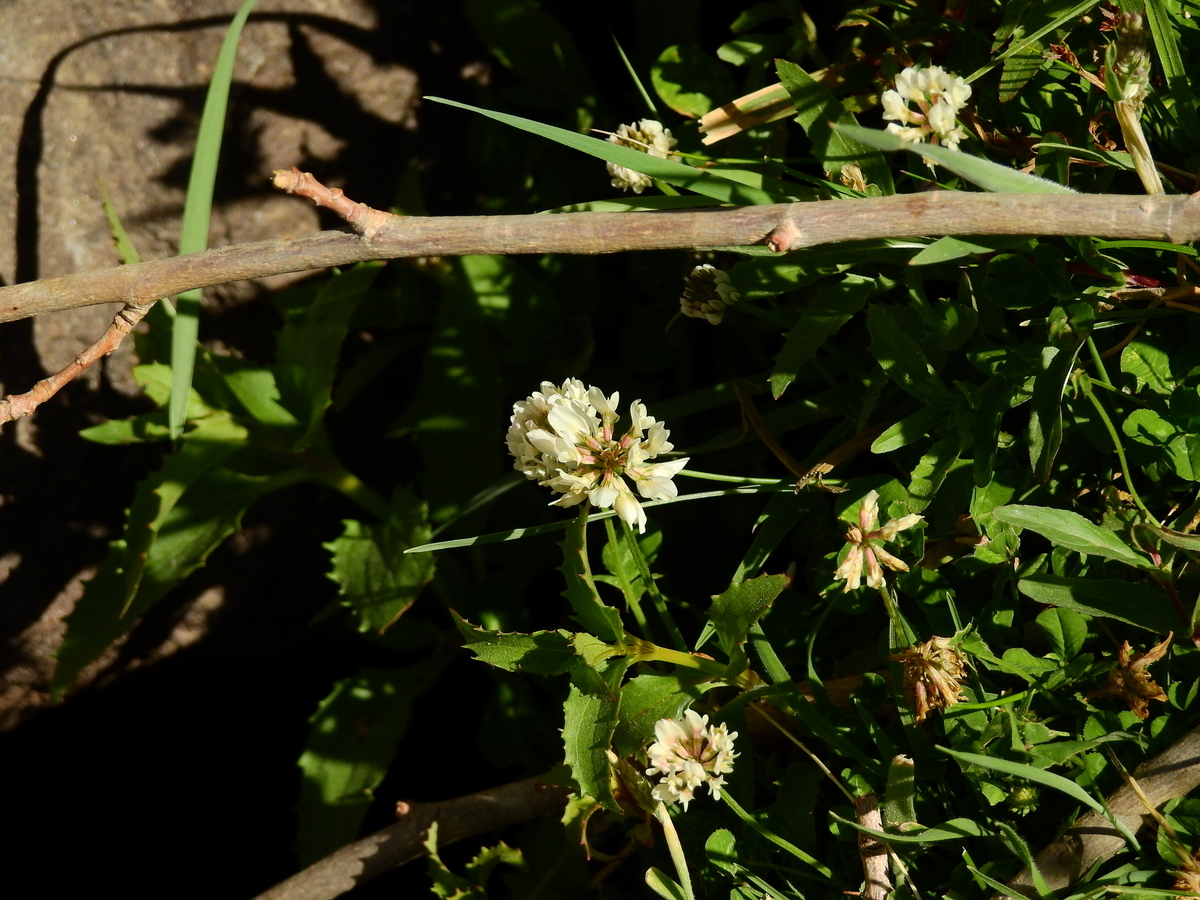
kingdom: Plantae
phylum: Tracheophyta
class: Magnoliopsida
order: Fabales
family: Fabaceae
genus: Trifolium
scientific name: Trifolium repens
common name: White clover
